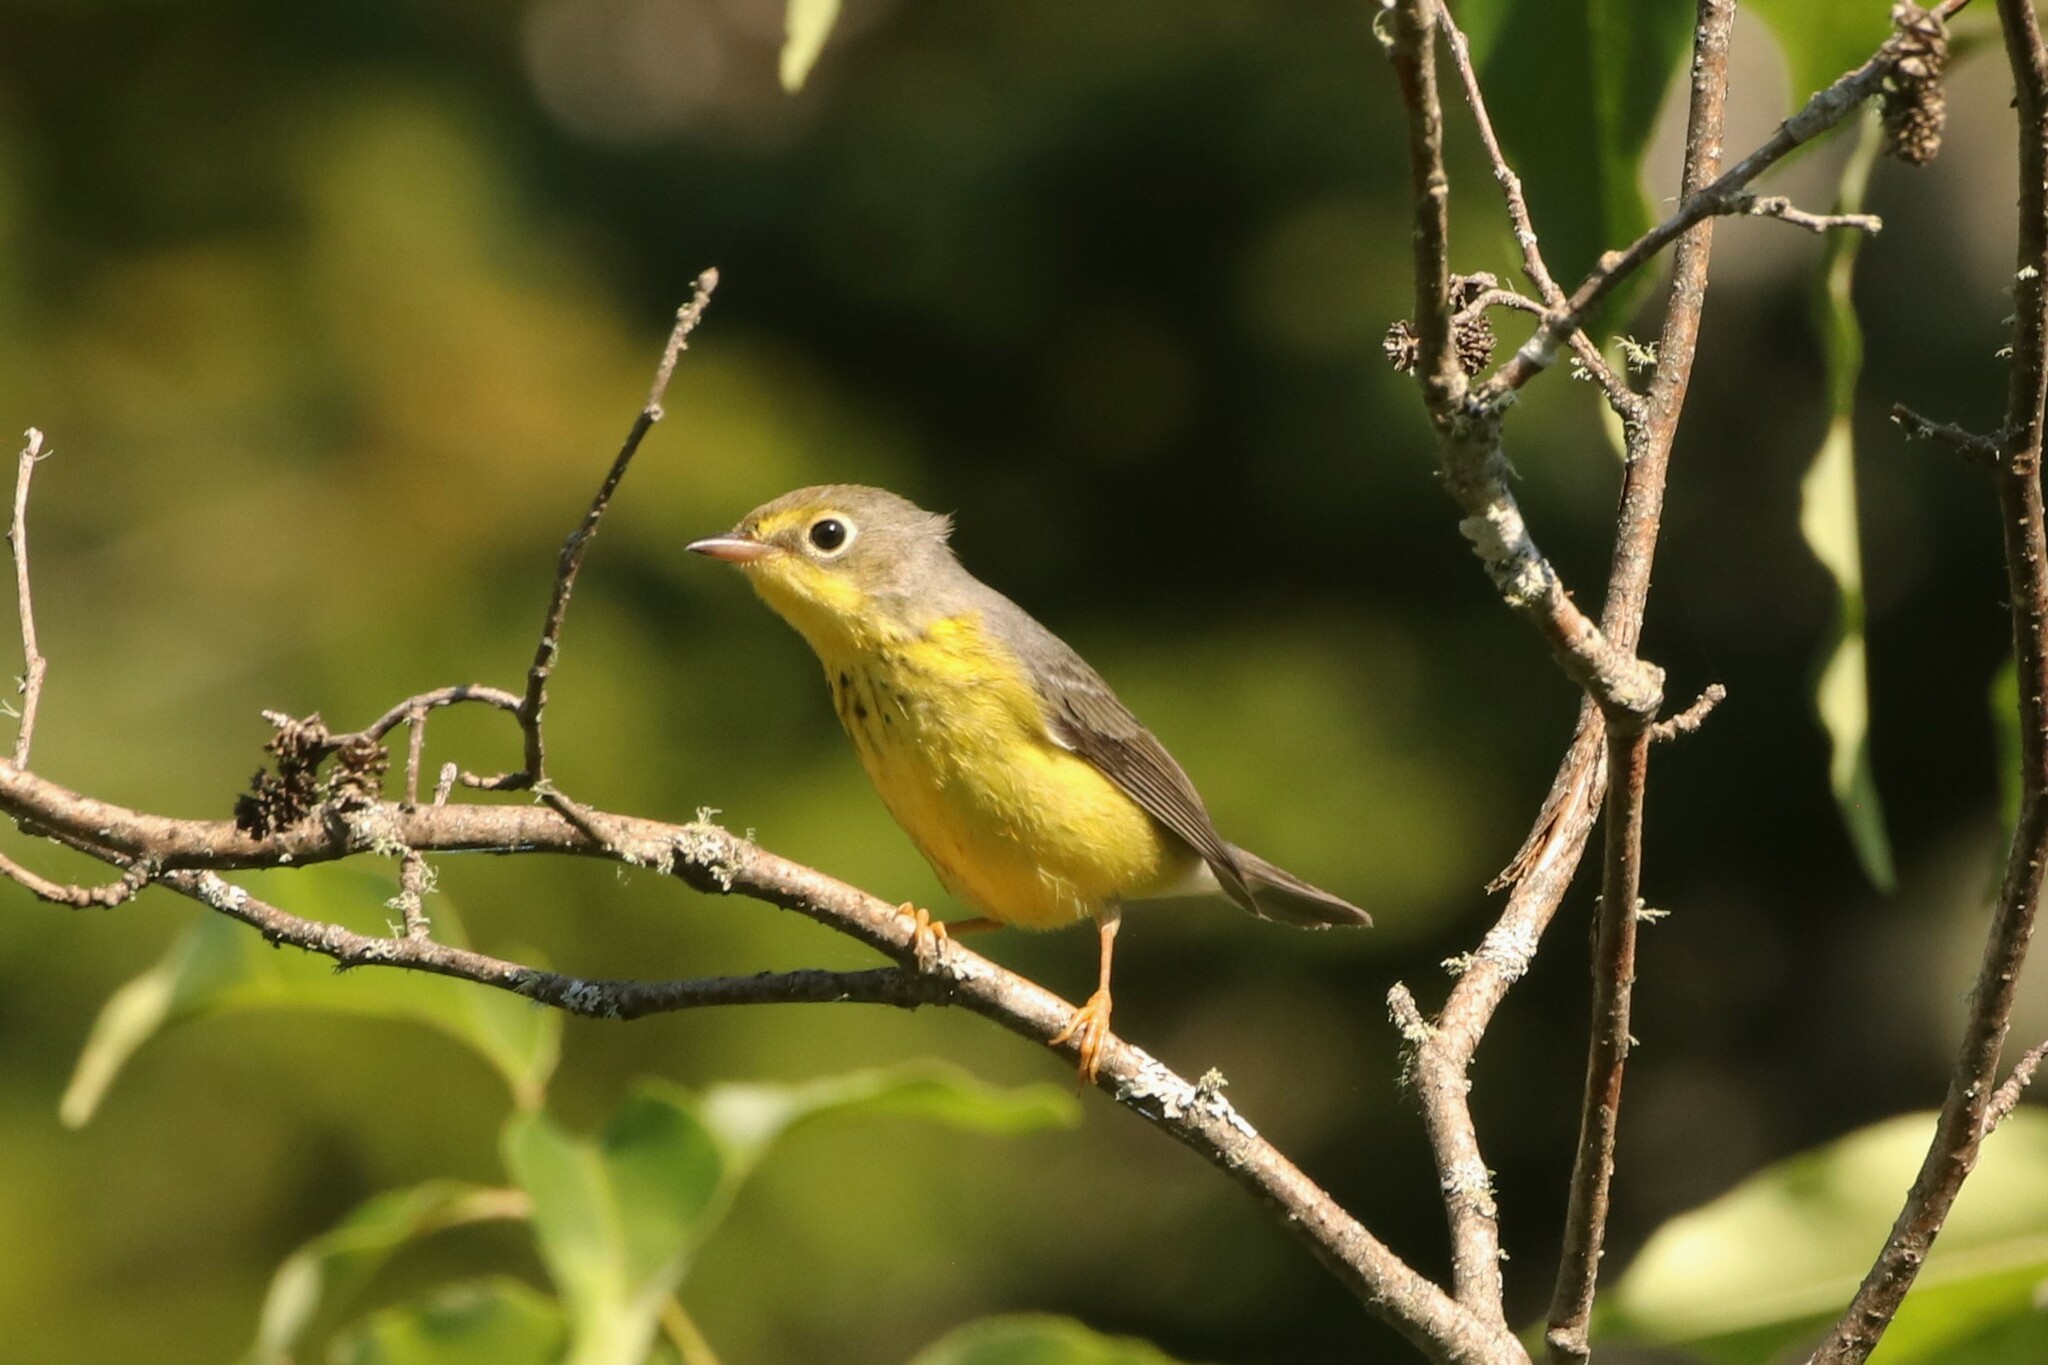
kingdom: Animalia
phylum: Chordata
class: Aves
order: Passeriformes
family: Parulidae
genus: Cardellina
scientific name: Cardellina canadensis
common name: Canada warbler
